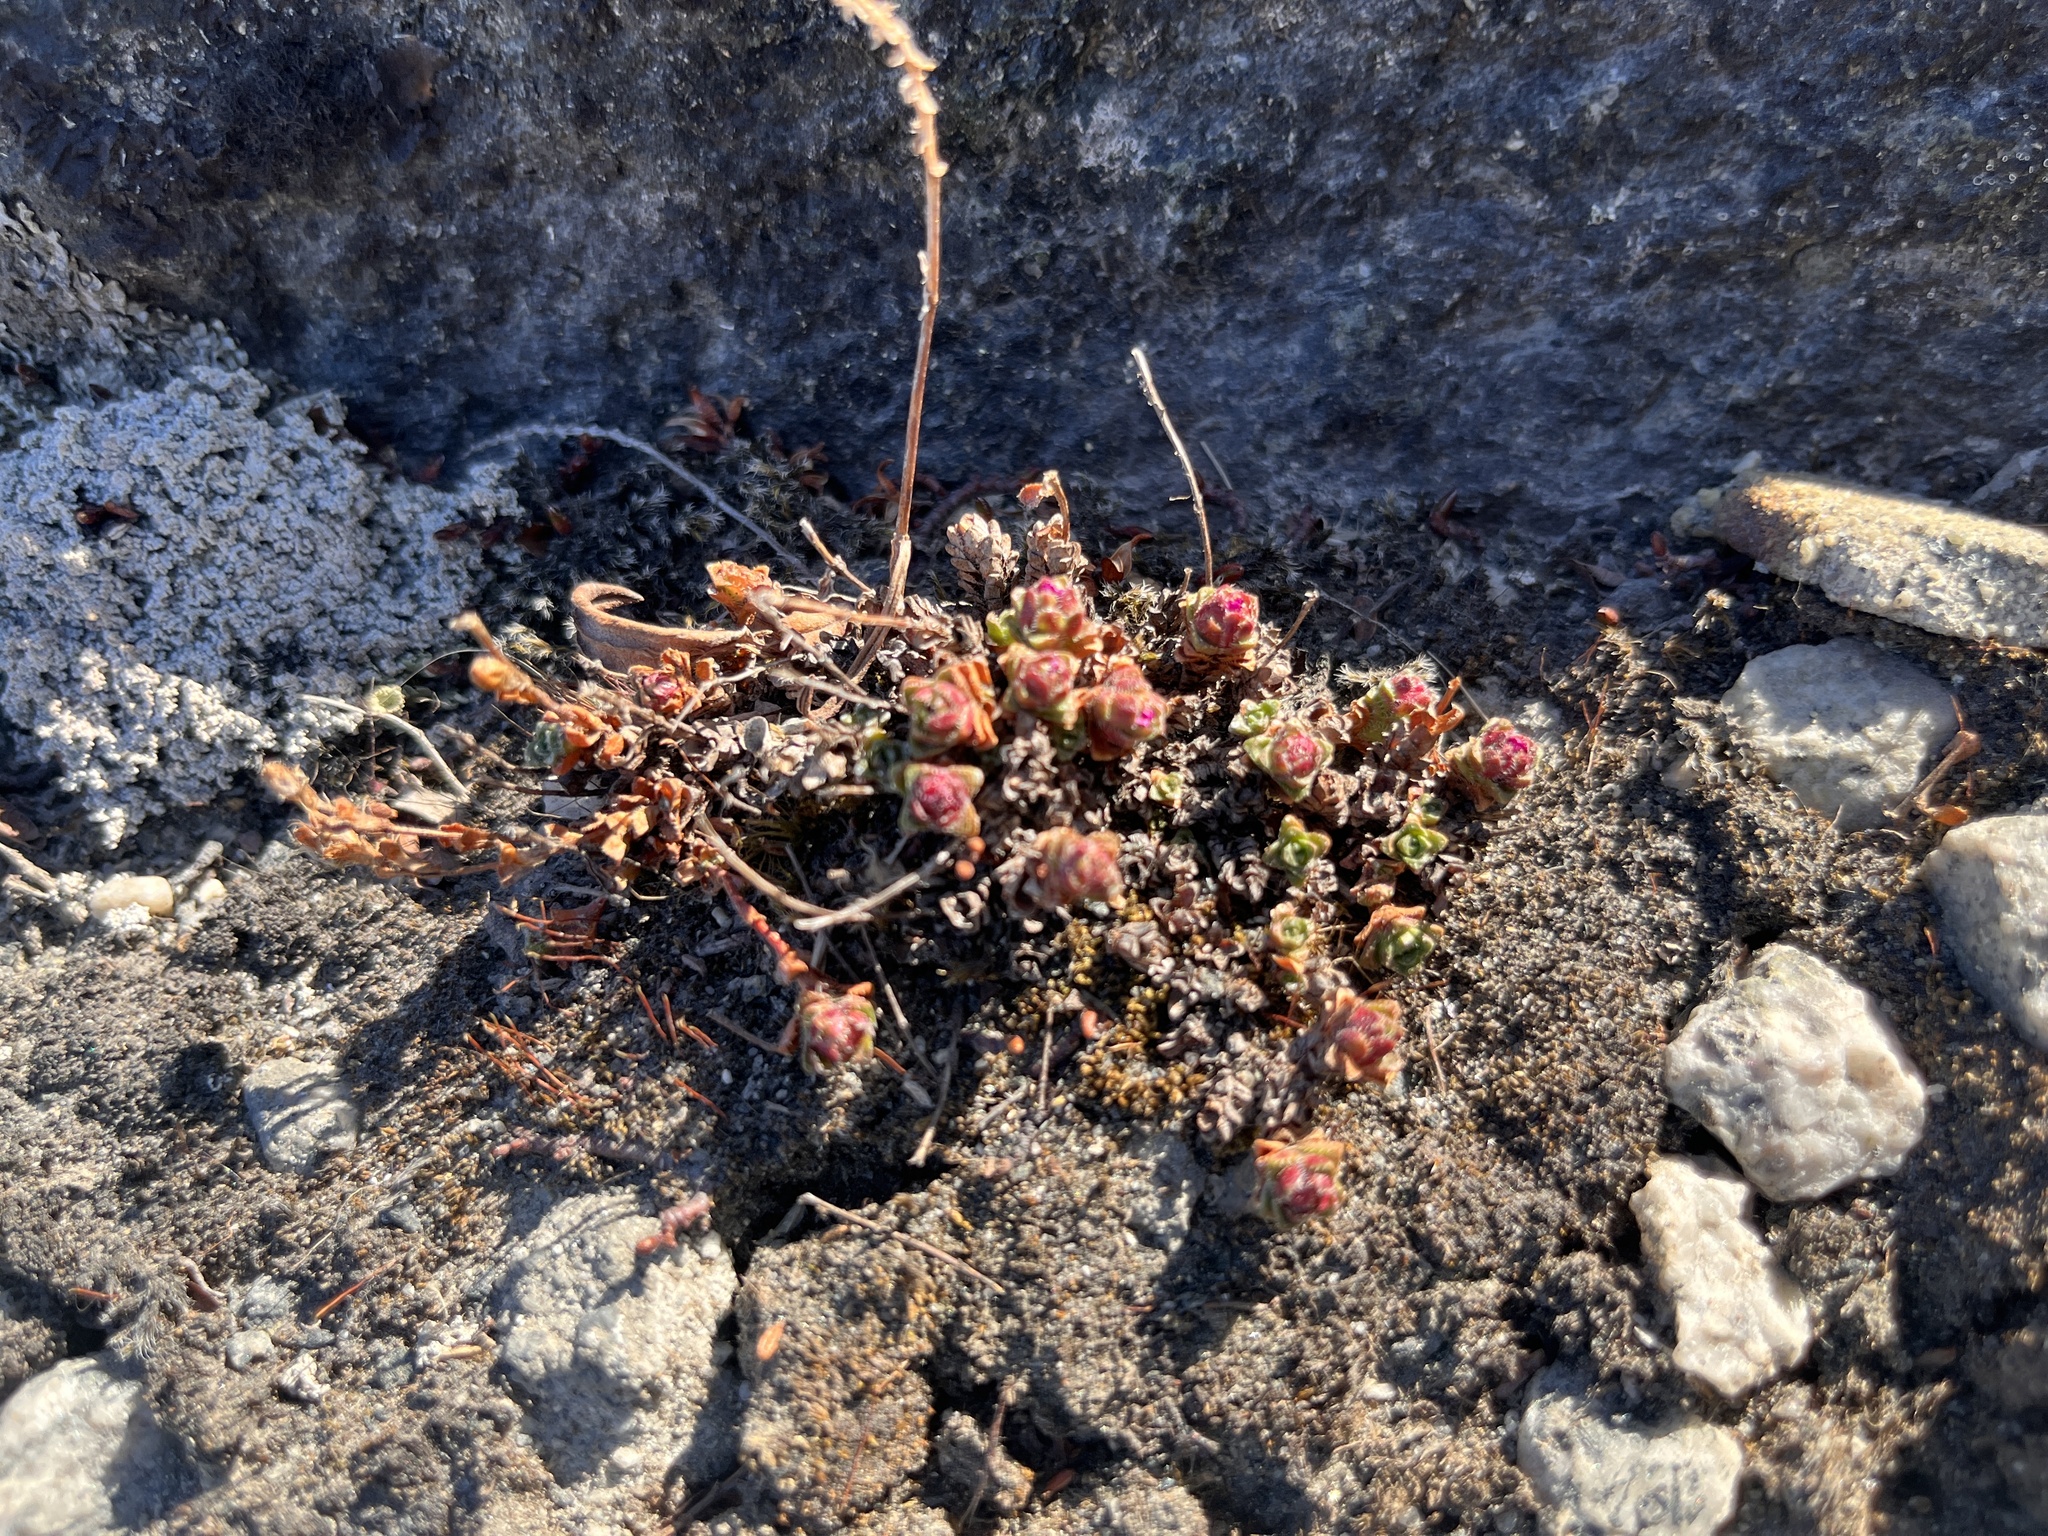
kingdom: Plantae
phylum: Tracheophyta
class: Magnoliopsida
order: Saxifragales
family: Saxifragaceae
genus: Saxifraga
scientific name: Saxifraga oppositifolia
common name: Purple saxifrage
